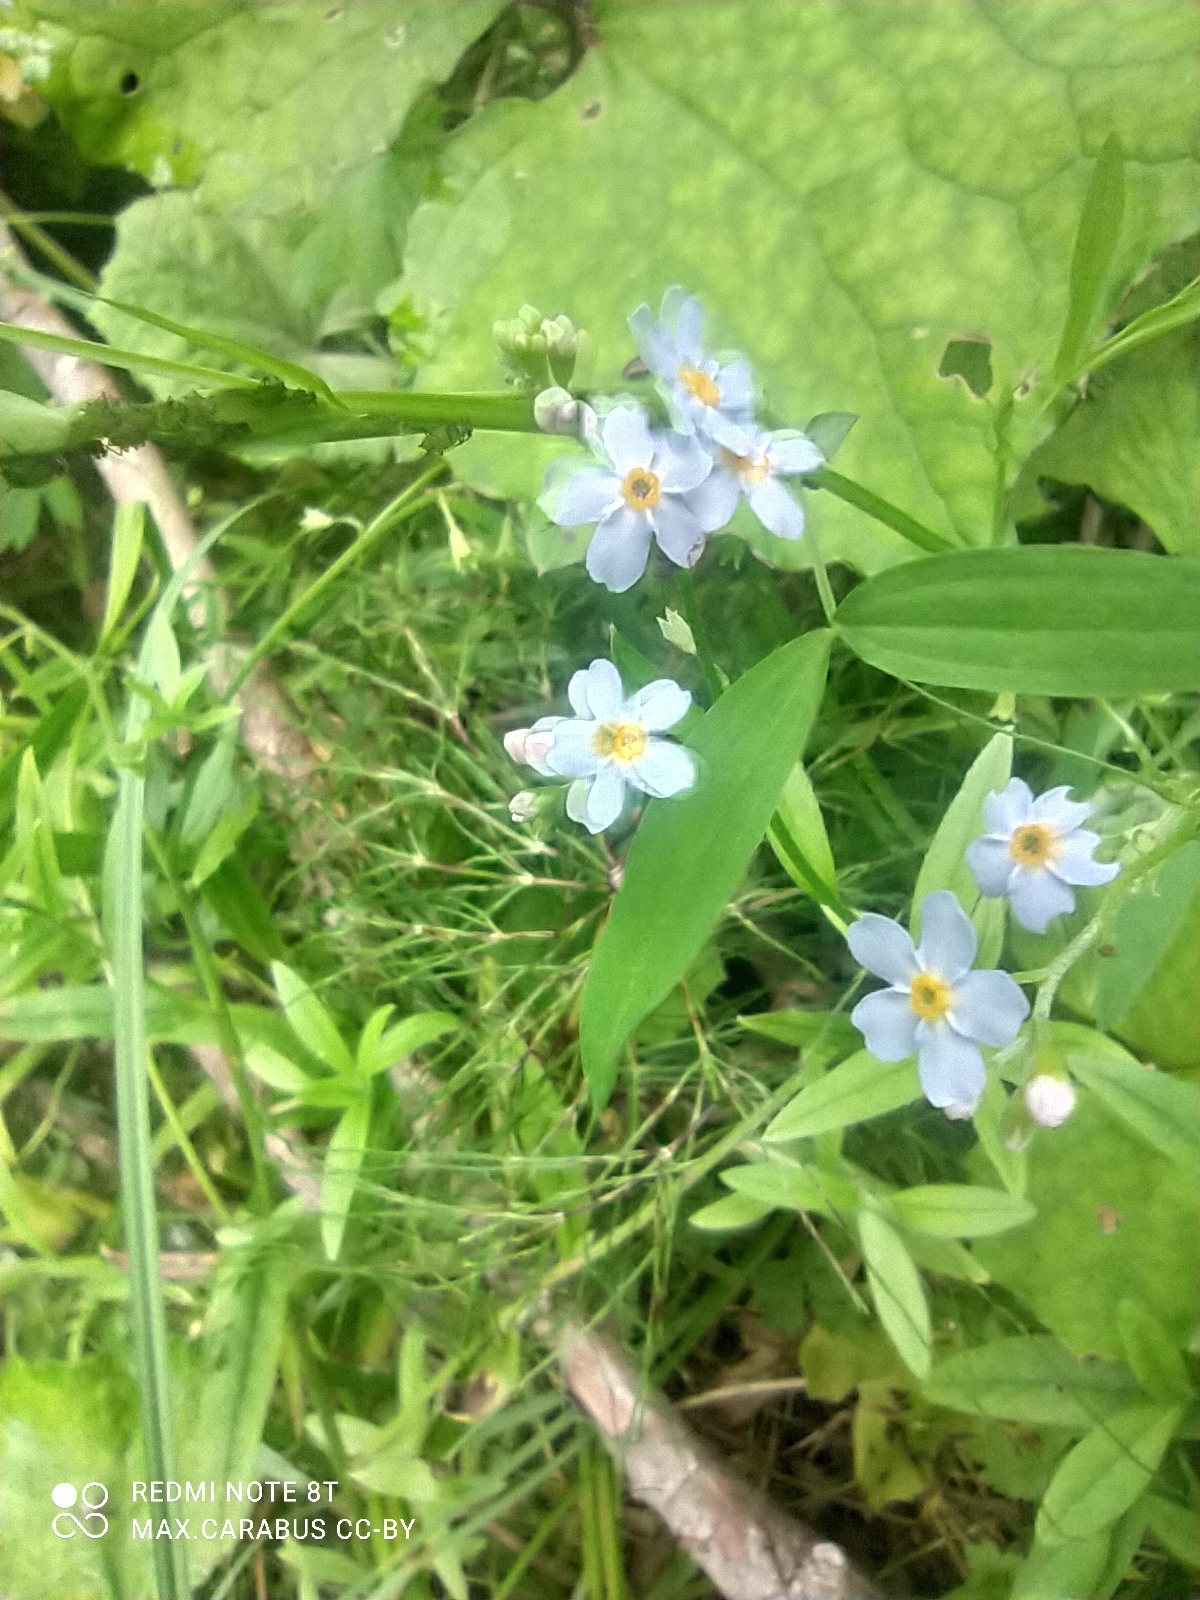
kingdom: Plantae
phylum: Tracheophyta
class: Magnoliopsida
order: Boraginales
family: Boraginaceae
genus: Myosotis
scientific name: Myosotis scorpioides
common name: Water forget-me-not
